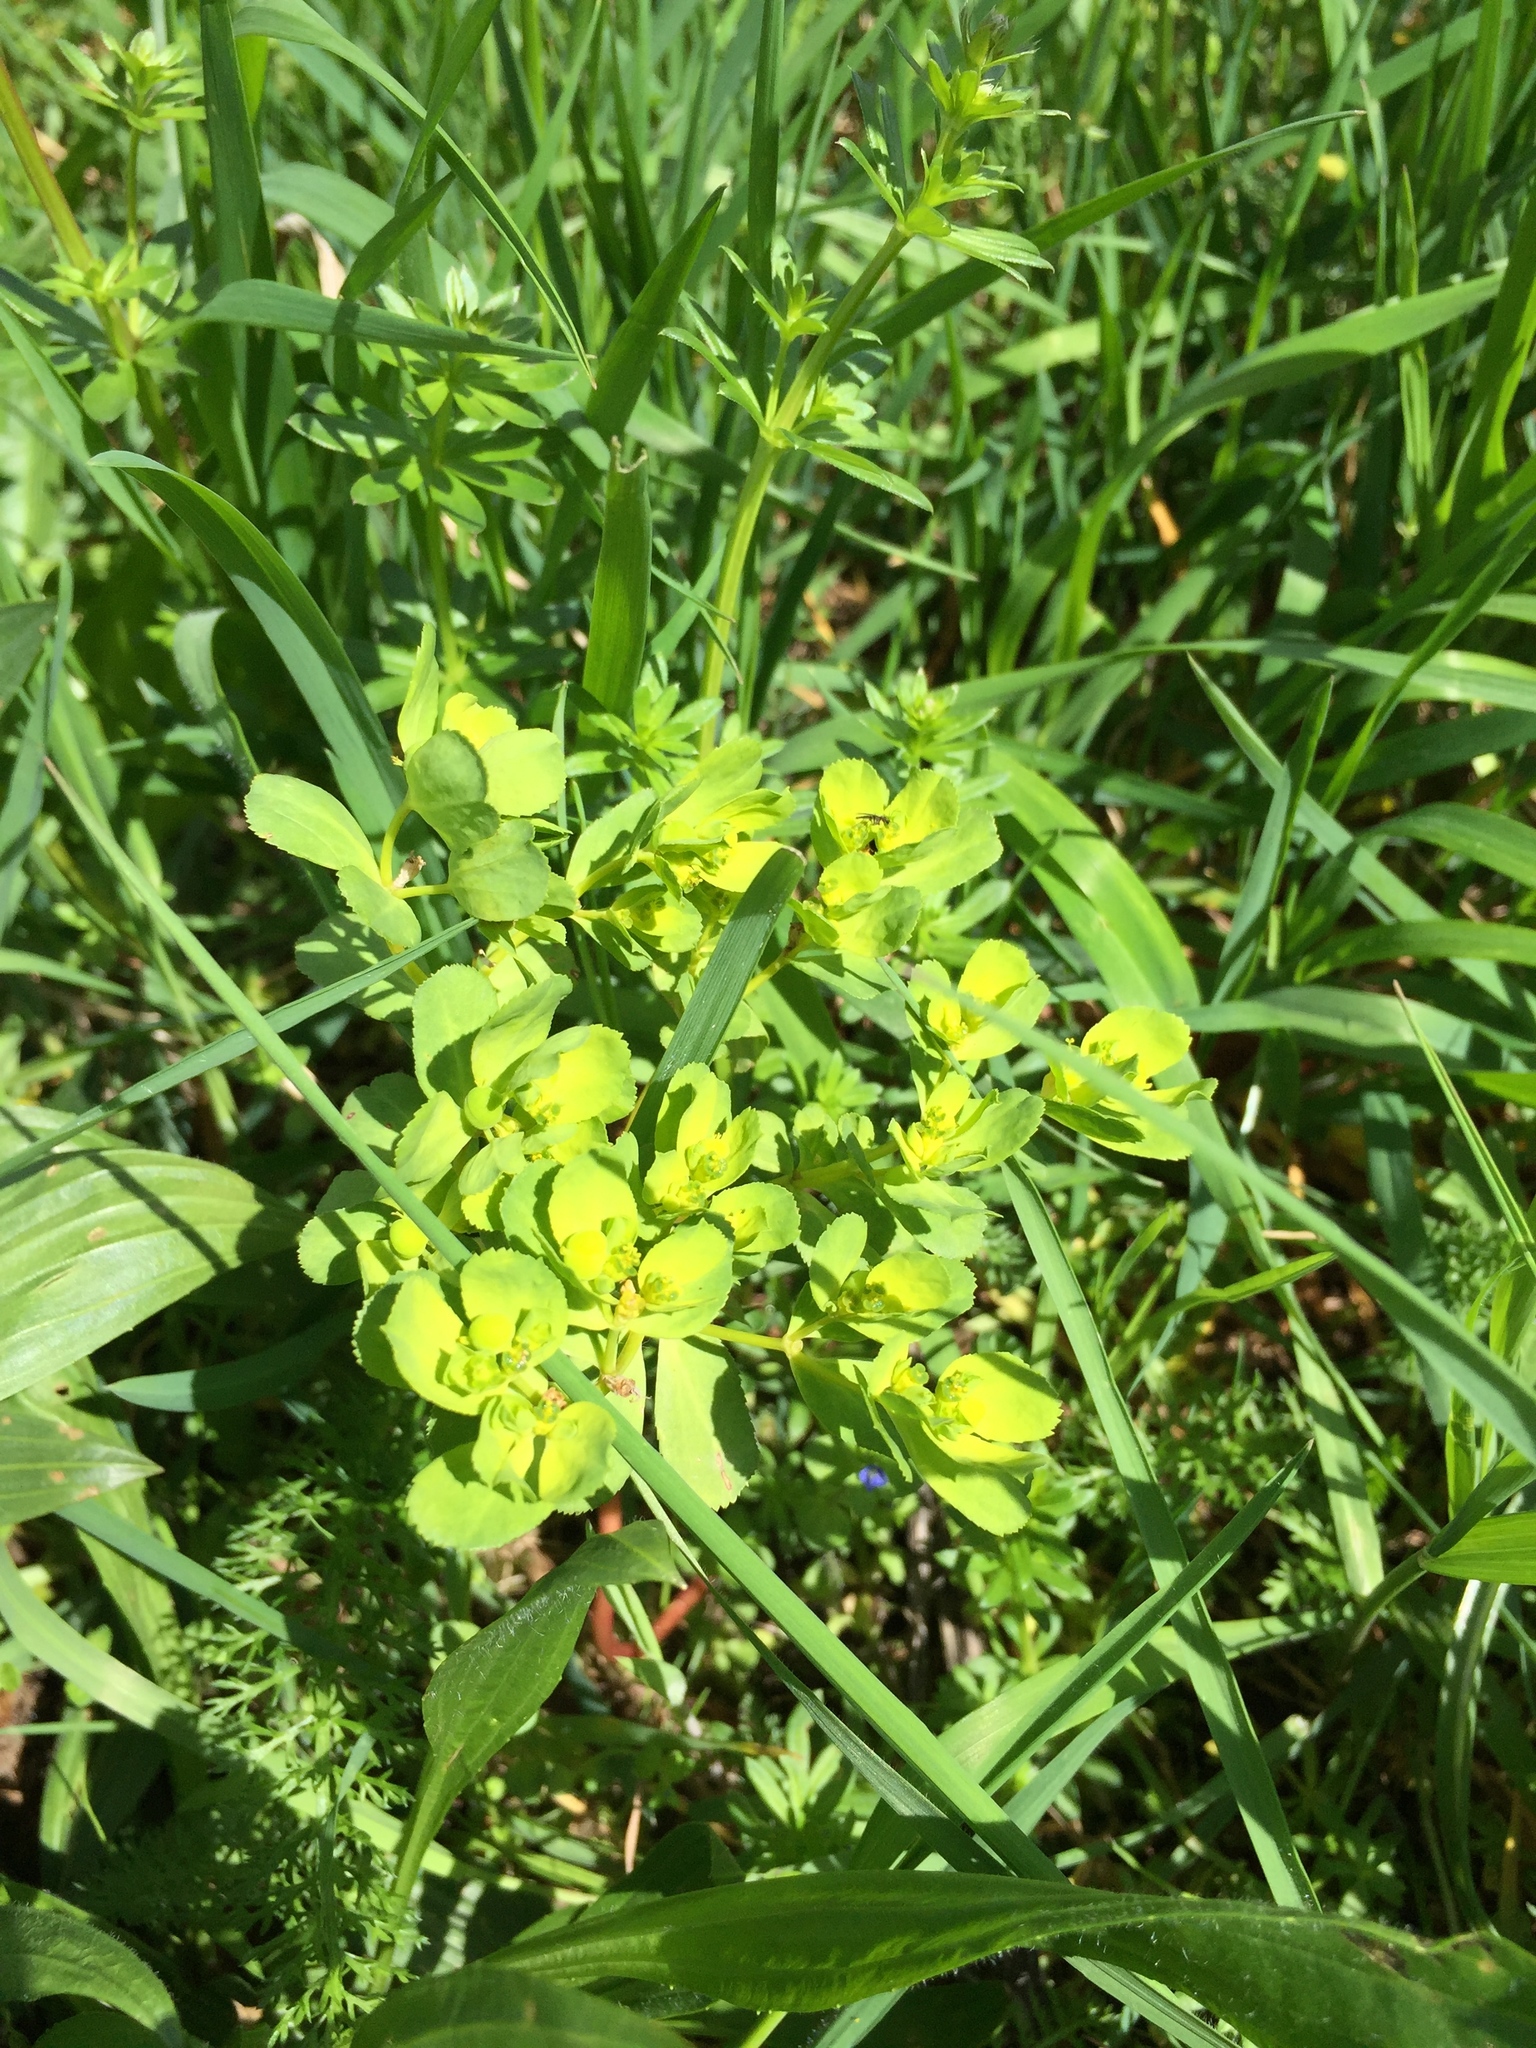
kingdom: Plantae
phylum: Tracheophyta
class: Magnoliopsida
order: Malpighiales
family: Euphorbiaceae
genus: Euphorbia
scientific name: Euphorbia helioscopia
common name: Sun spurge
